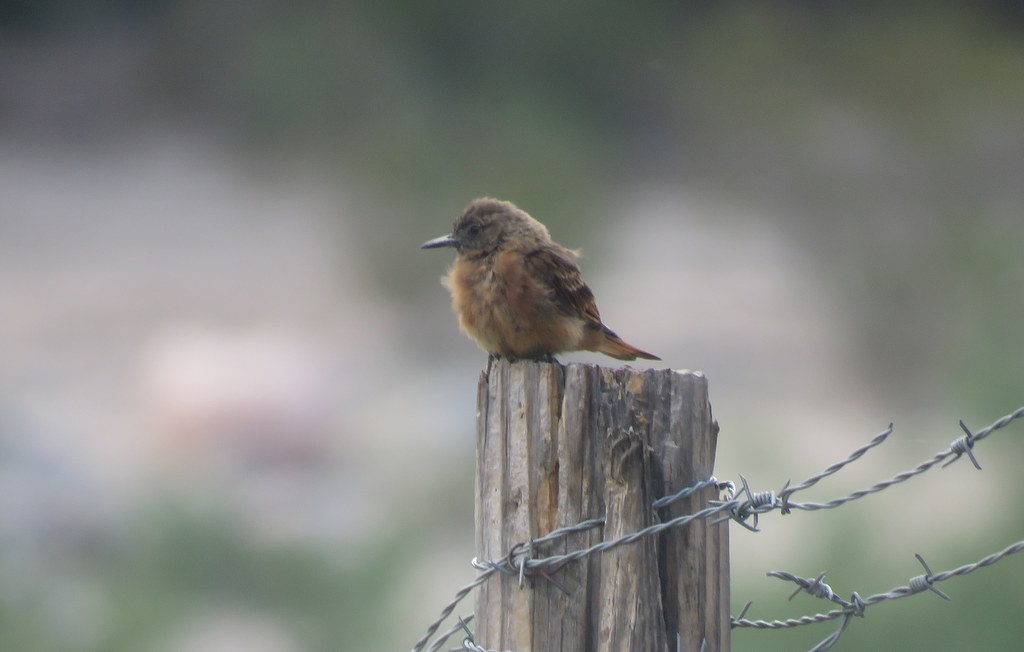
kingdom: Animalia
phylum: Chordata
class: Aves
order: Passeriformes
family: Tyrannidae
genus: Hirundinea
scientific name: Hirundinea ferruginea
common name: Cliff flycatcher
